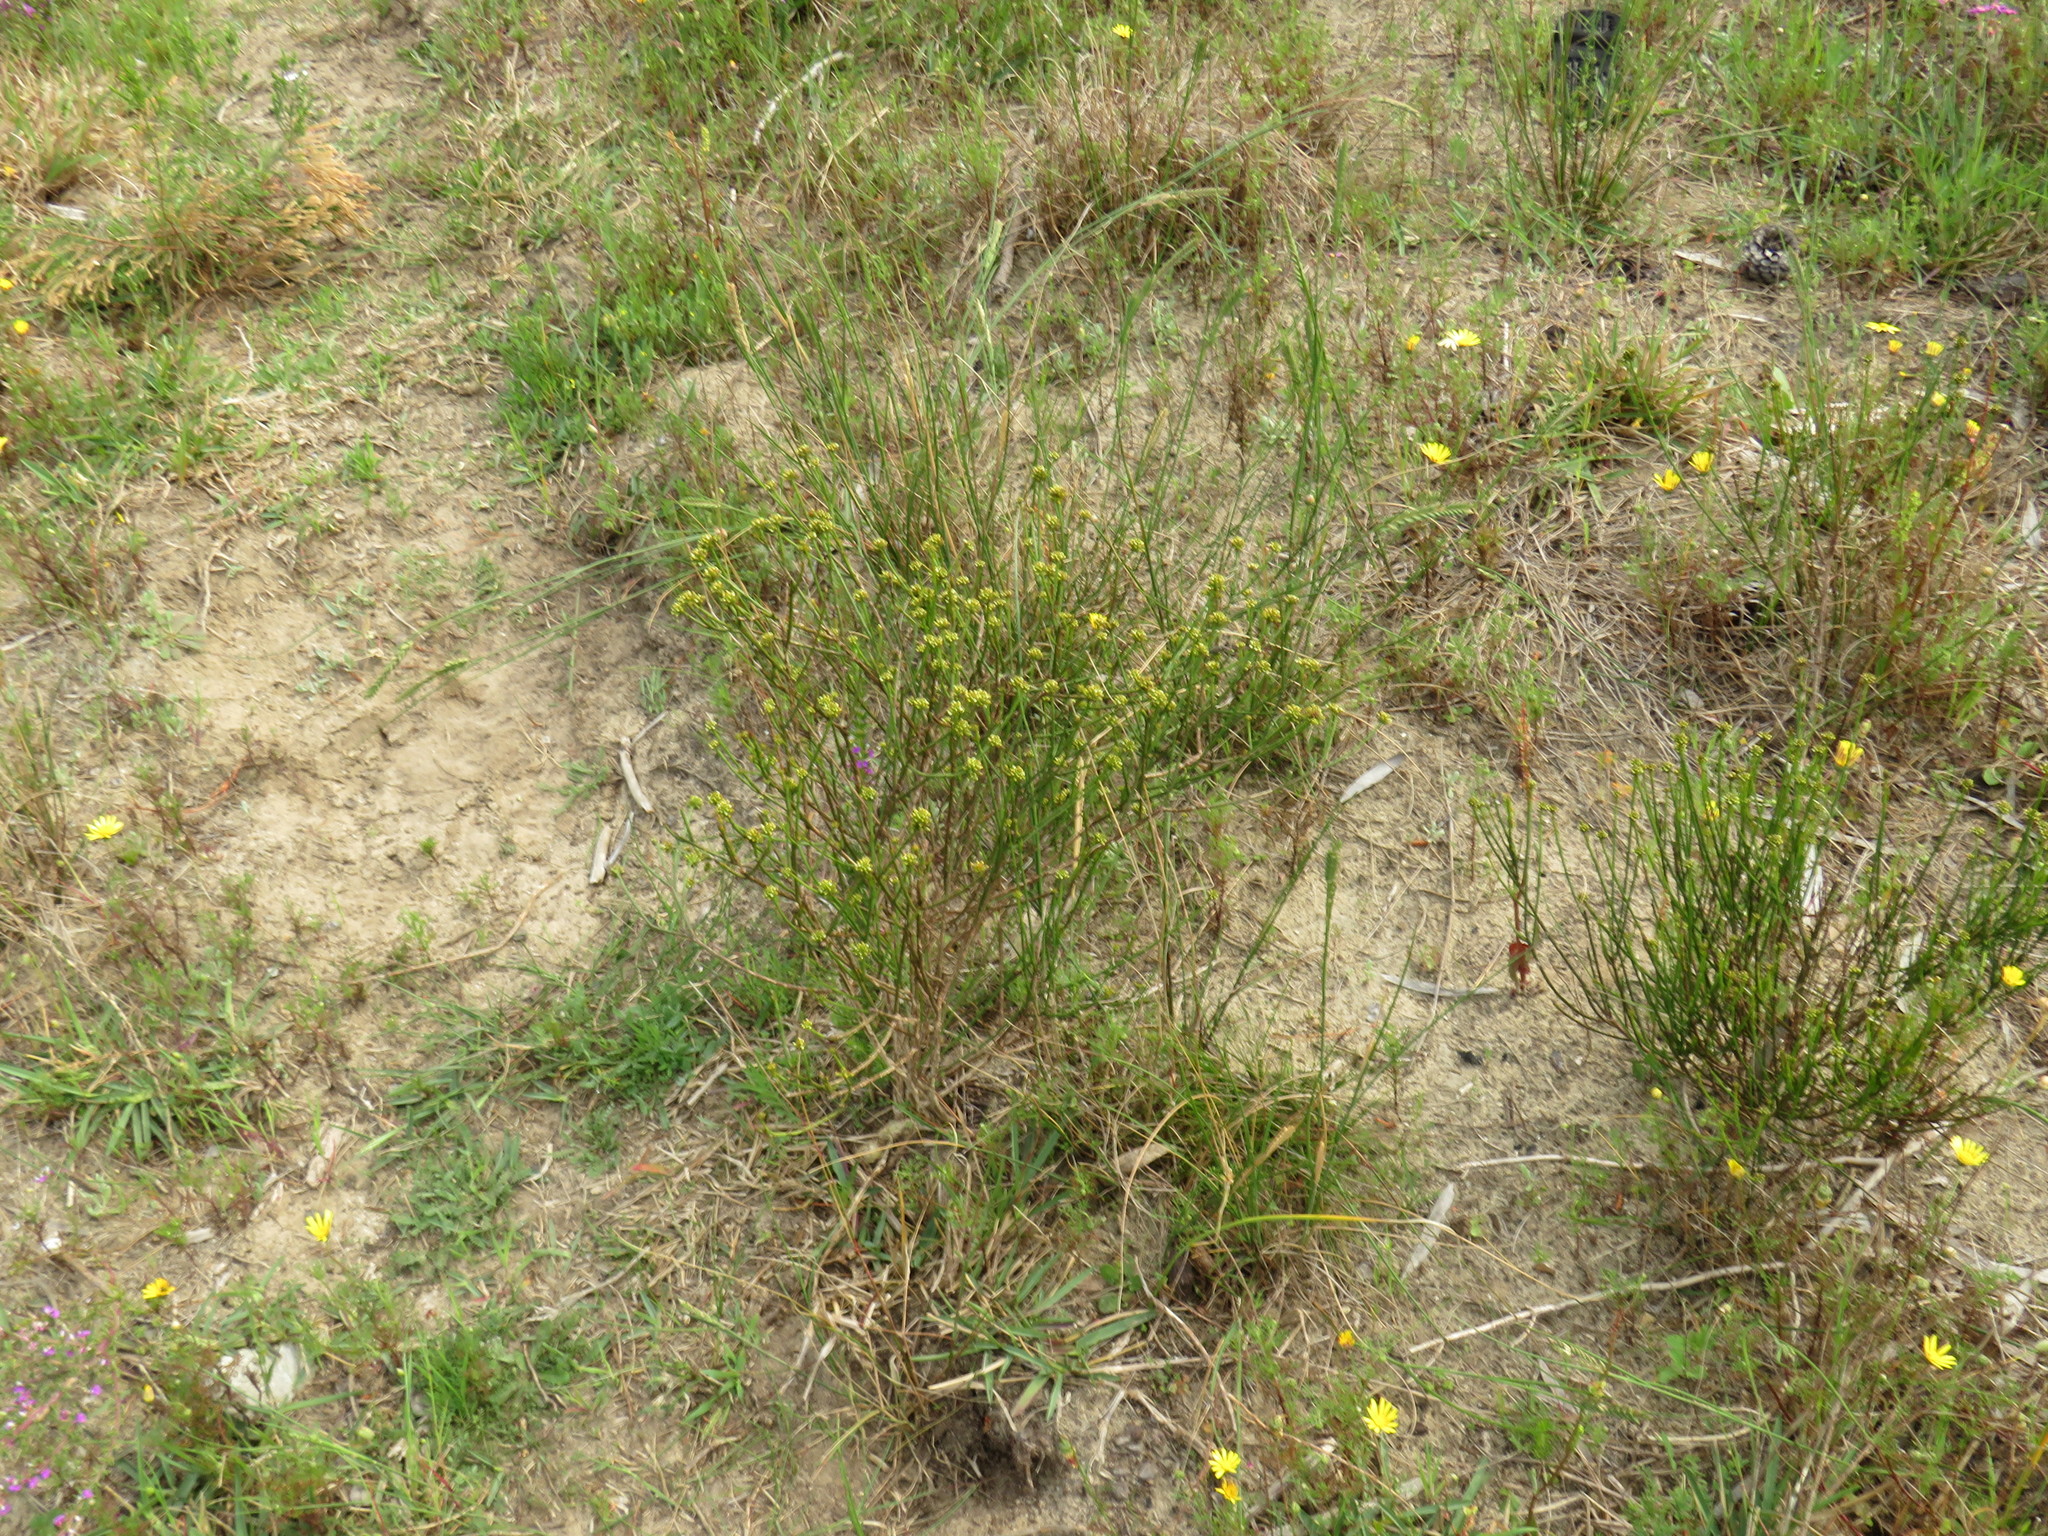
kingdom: Plantae
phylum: Tracheophyta
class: Magnoliopsida
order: Santalales
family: Thesiaceae
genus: Thesium
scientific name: Thesium aggregatum
